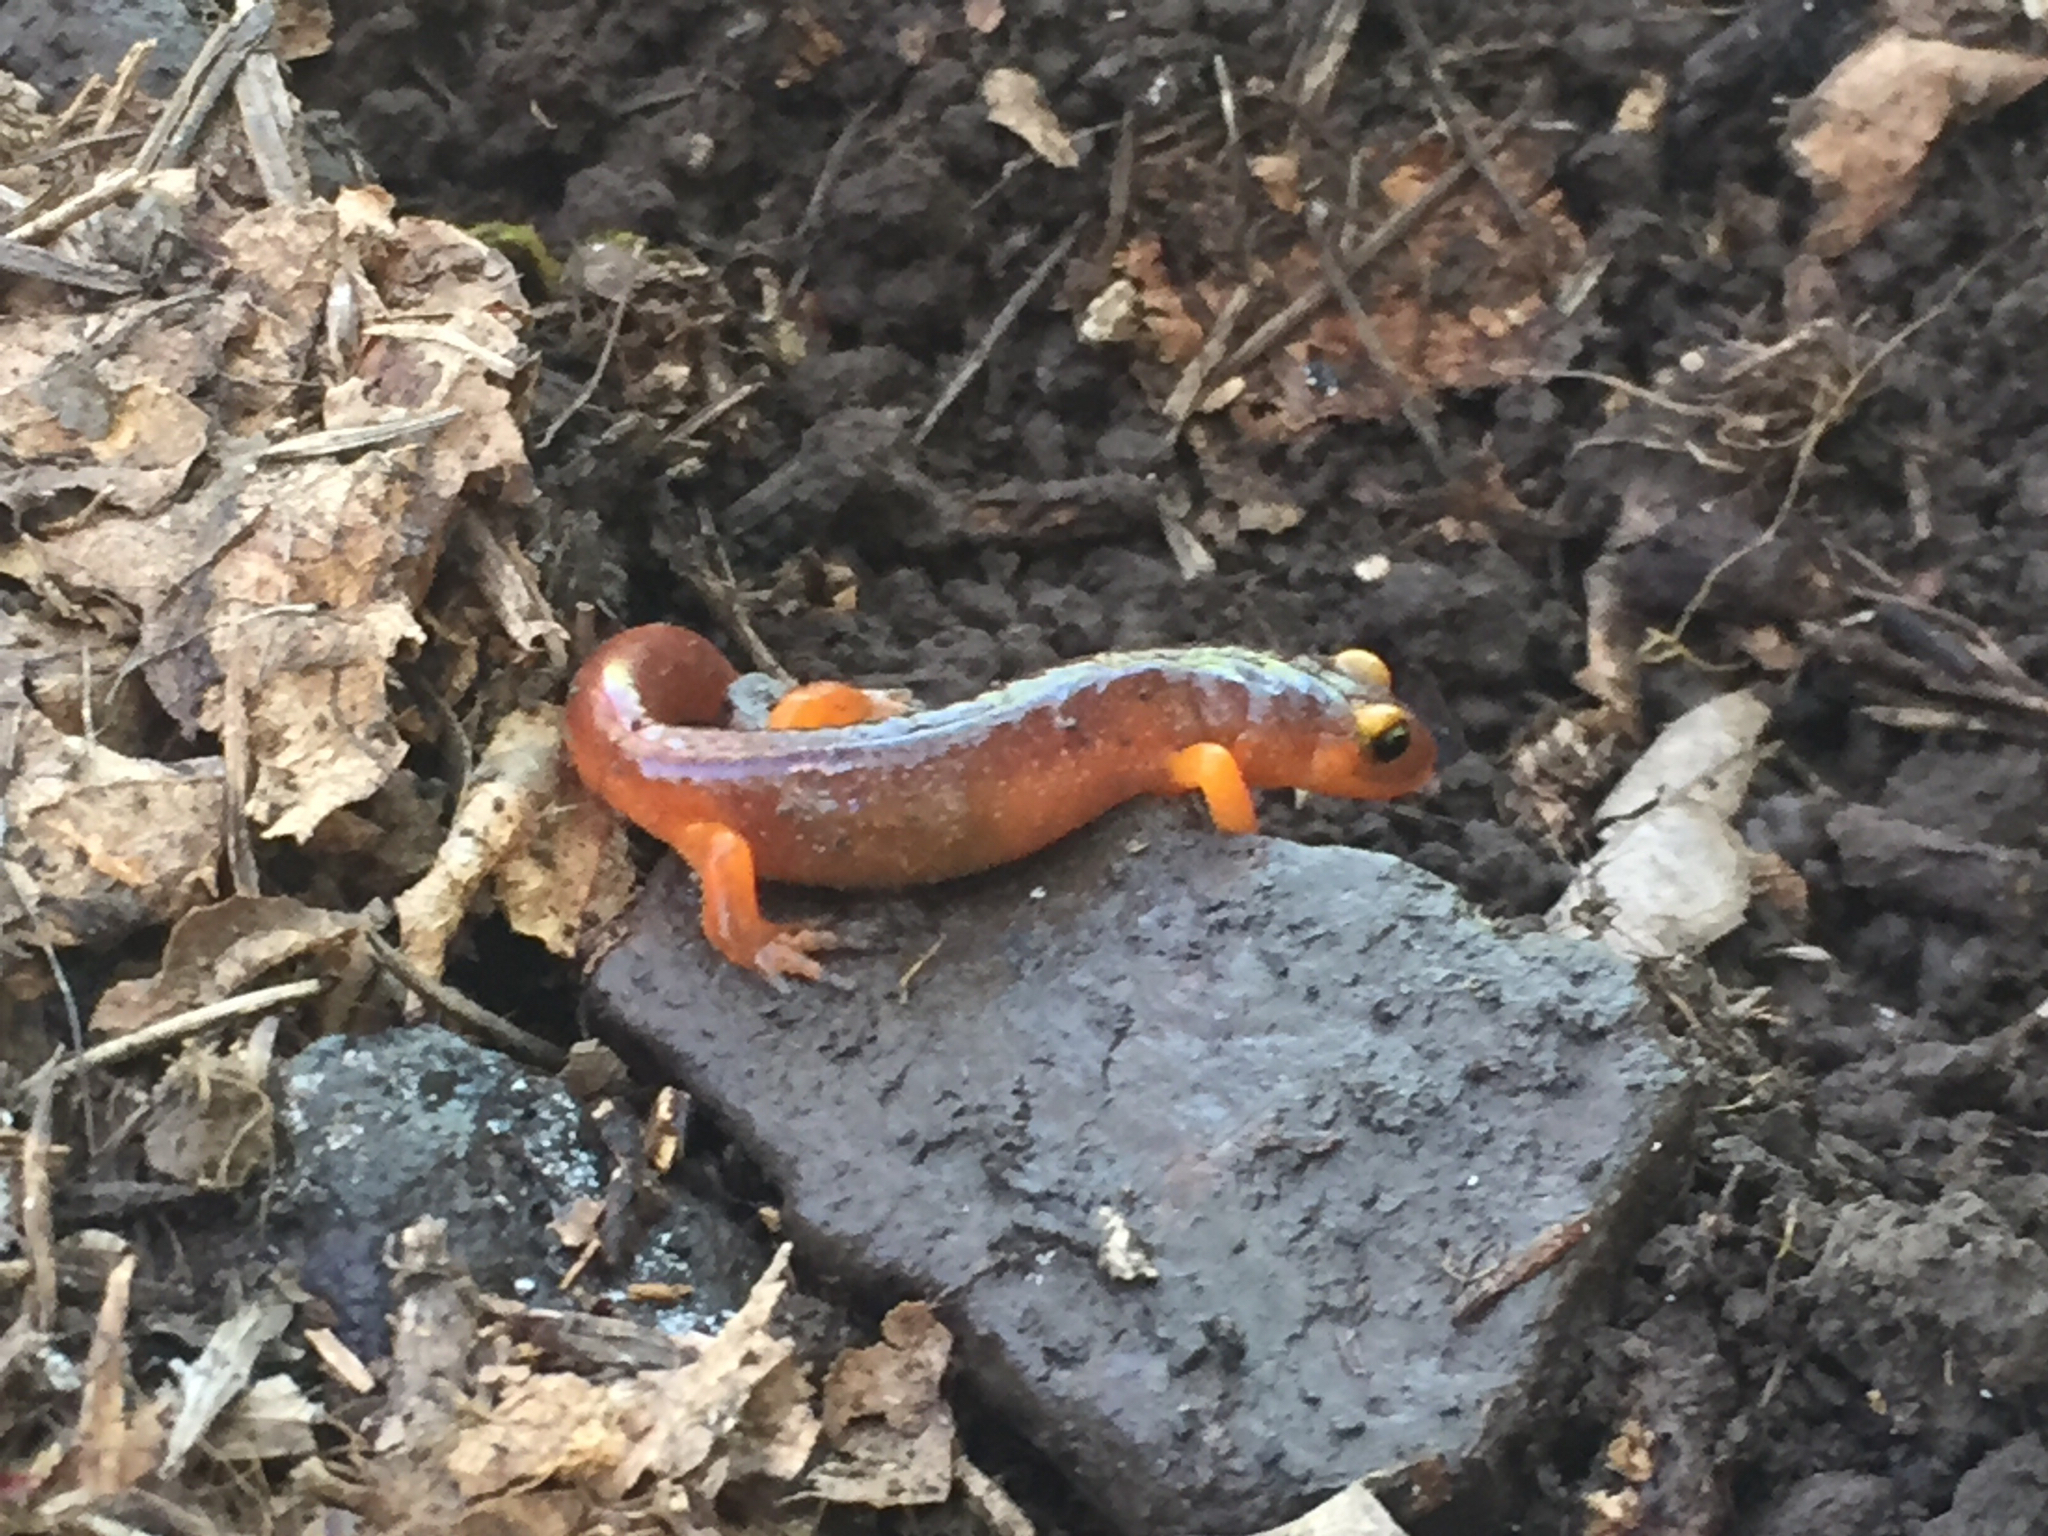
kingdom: Animalia
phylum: Chordata
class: Amphibia
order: Caudata
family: Plethodontidae
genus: Ensatina
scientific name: Ensatina eschscholtzii
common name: Ensatina
